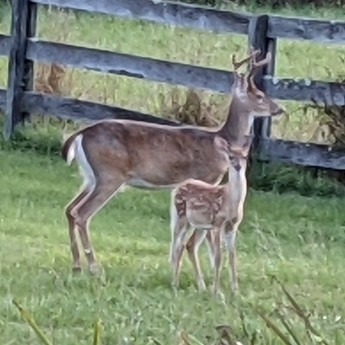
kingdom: Animalia
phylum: Chordata
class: Mammalia
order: Artiodactyla
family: Cervidae
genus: Odocoileus
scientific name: Odocoileus virginianus
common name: White-tailed deer
